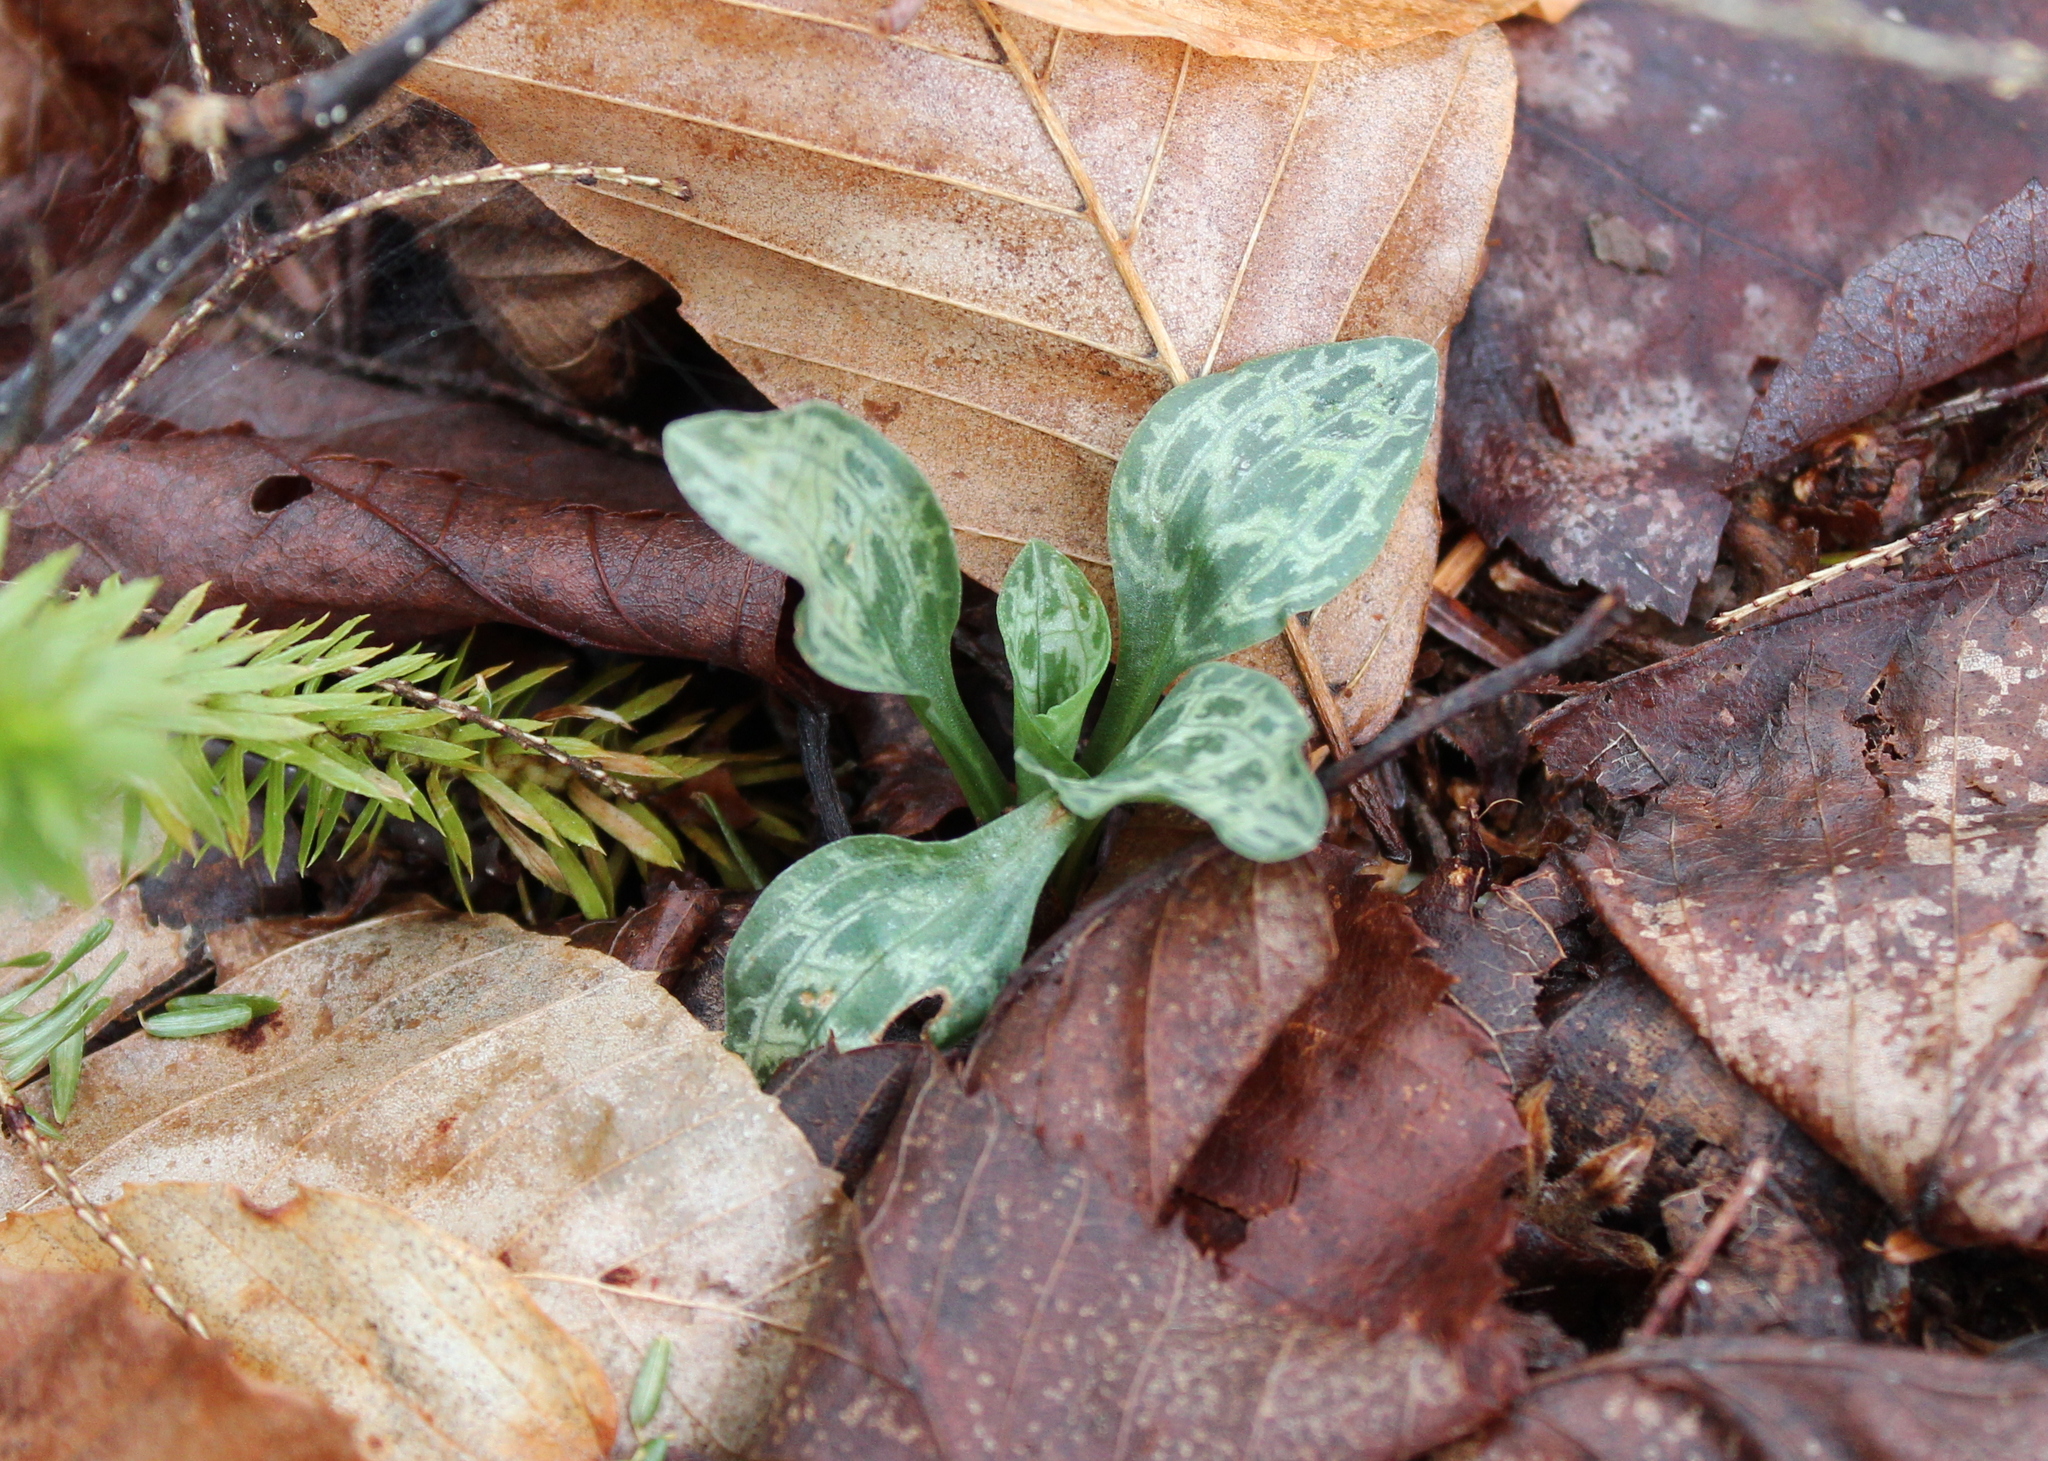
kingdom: Plantae
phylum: Tracheophyta
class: Liliopsida
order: Asparagales
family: Orchidaceae
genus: Goodyera
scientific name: Goodyera tesselata
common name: Checkered rattlesnake-plantain
